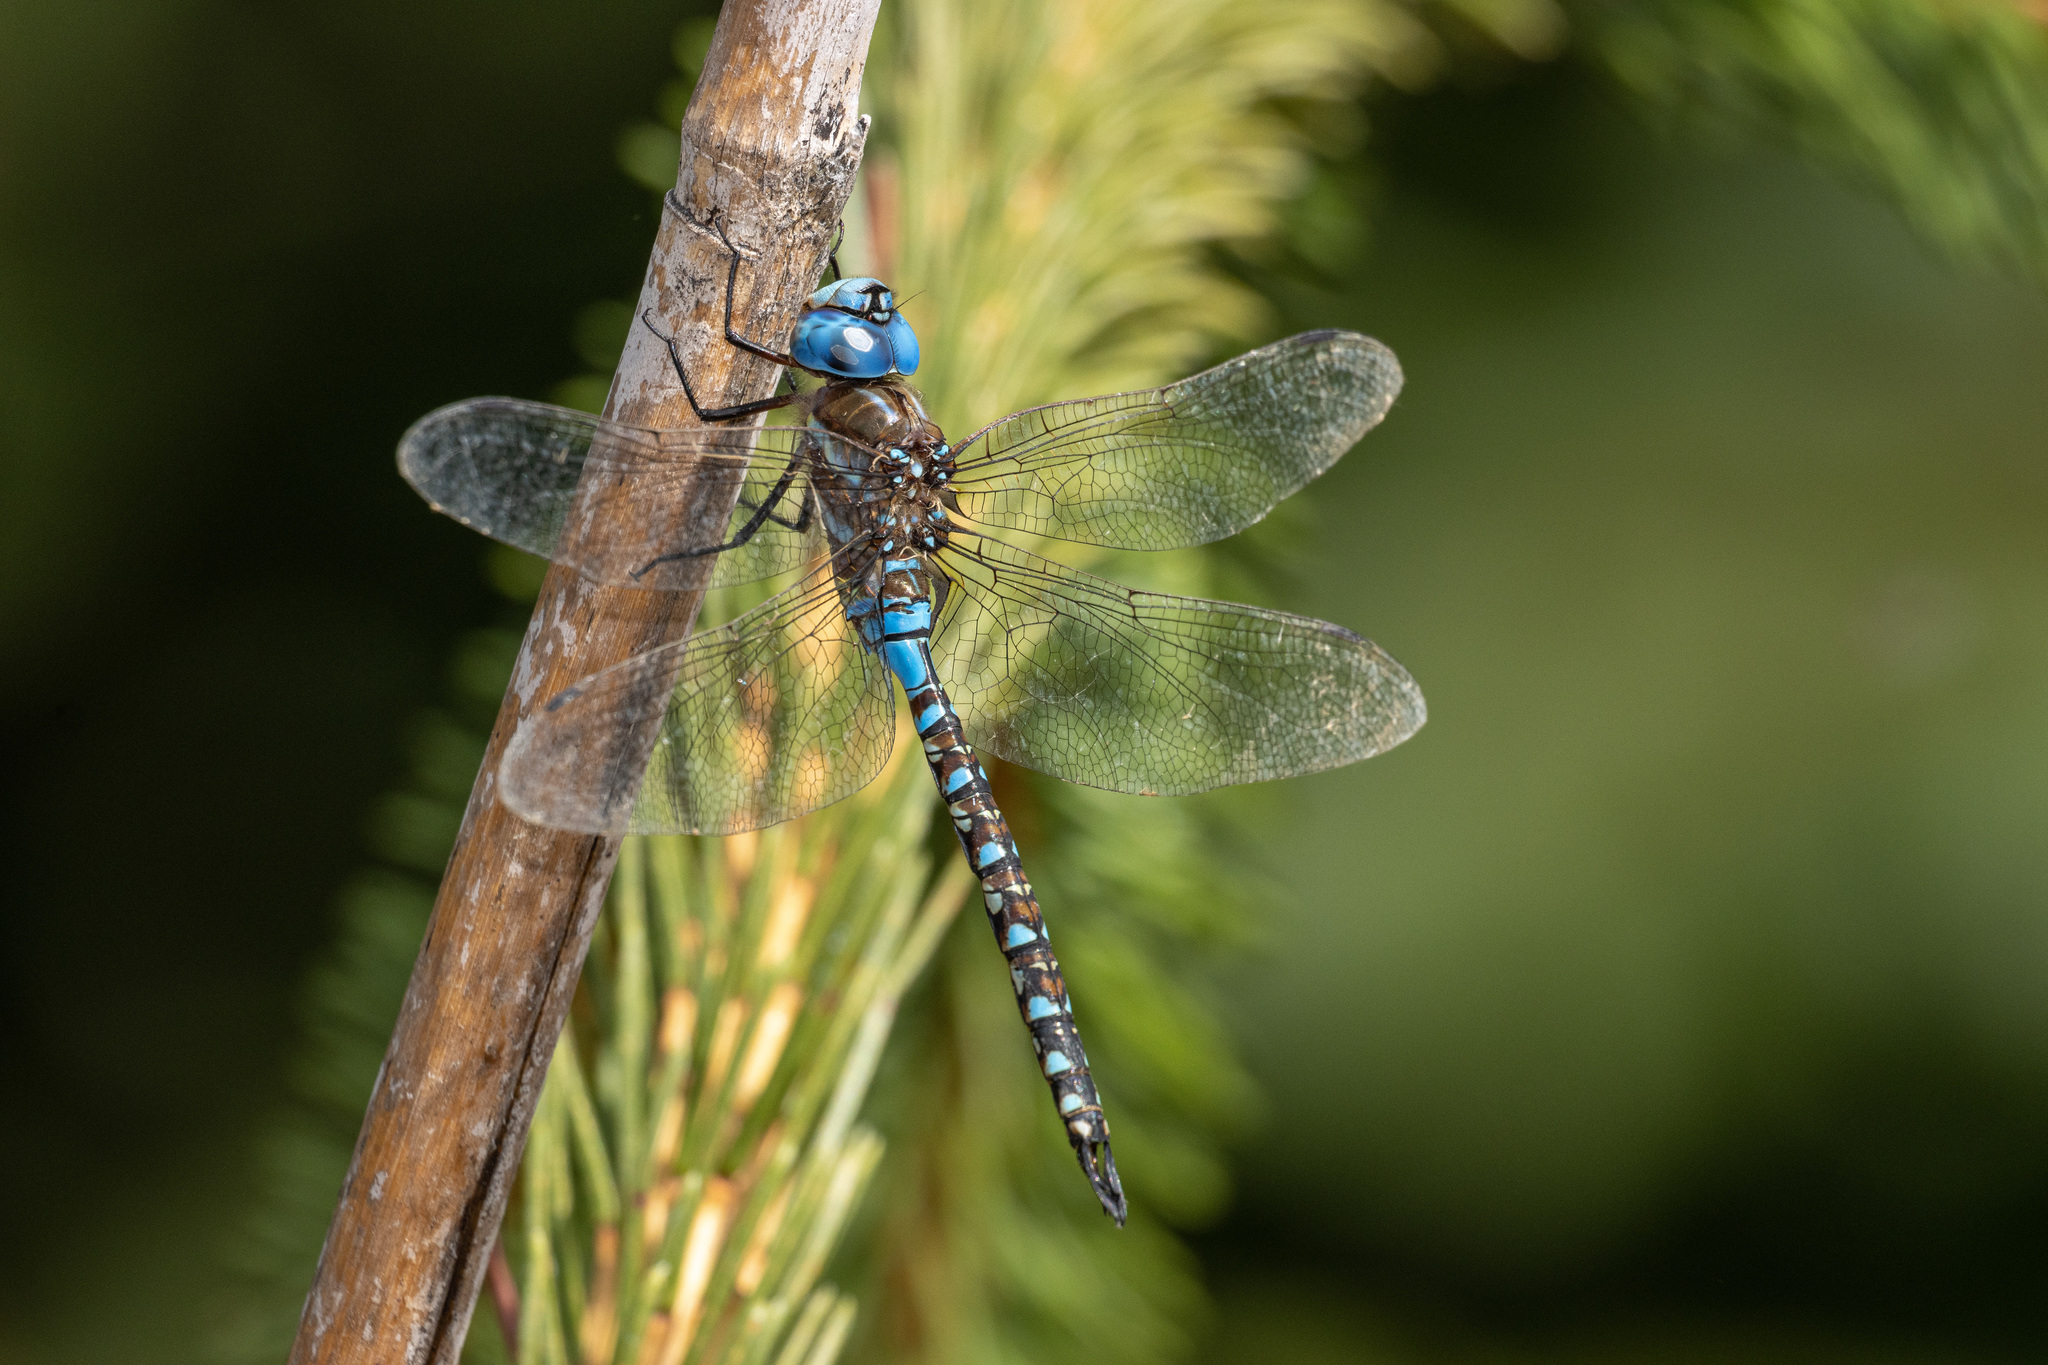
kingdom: Animalia
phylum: Arthropoda
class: Insecta
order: Odonata
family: Aeshnidae
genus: Rhionaeschna
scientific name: Rhionaeschna multicolor
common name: Blue-eyed darner
